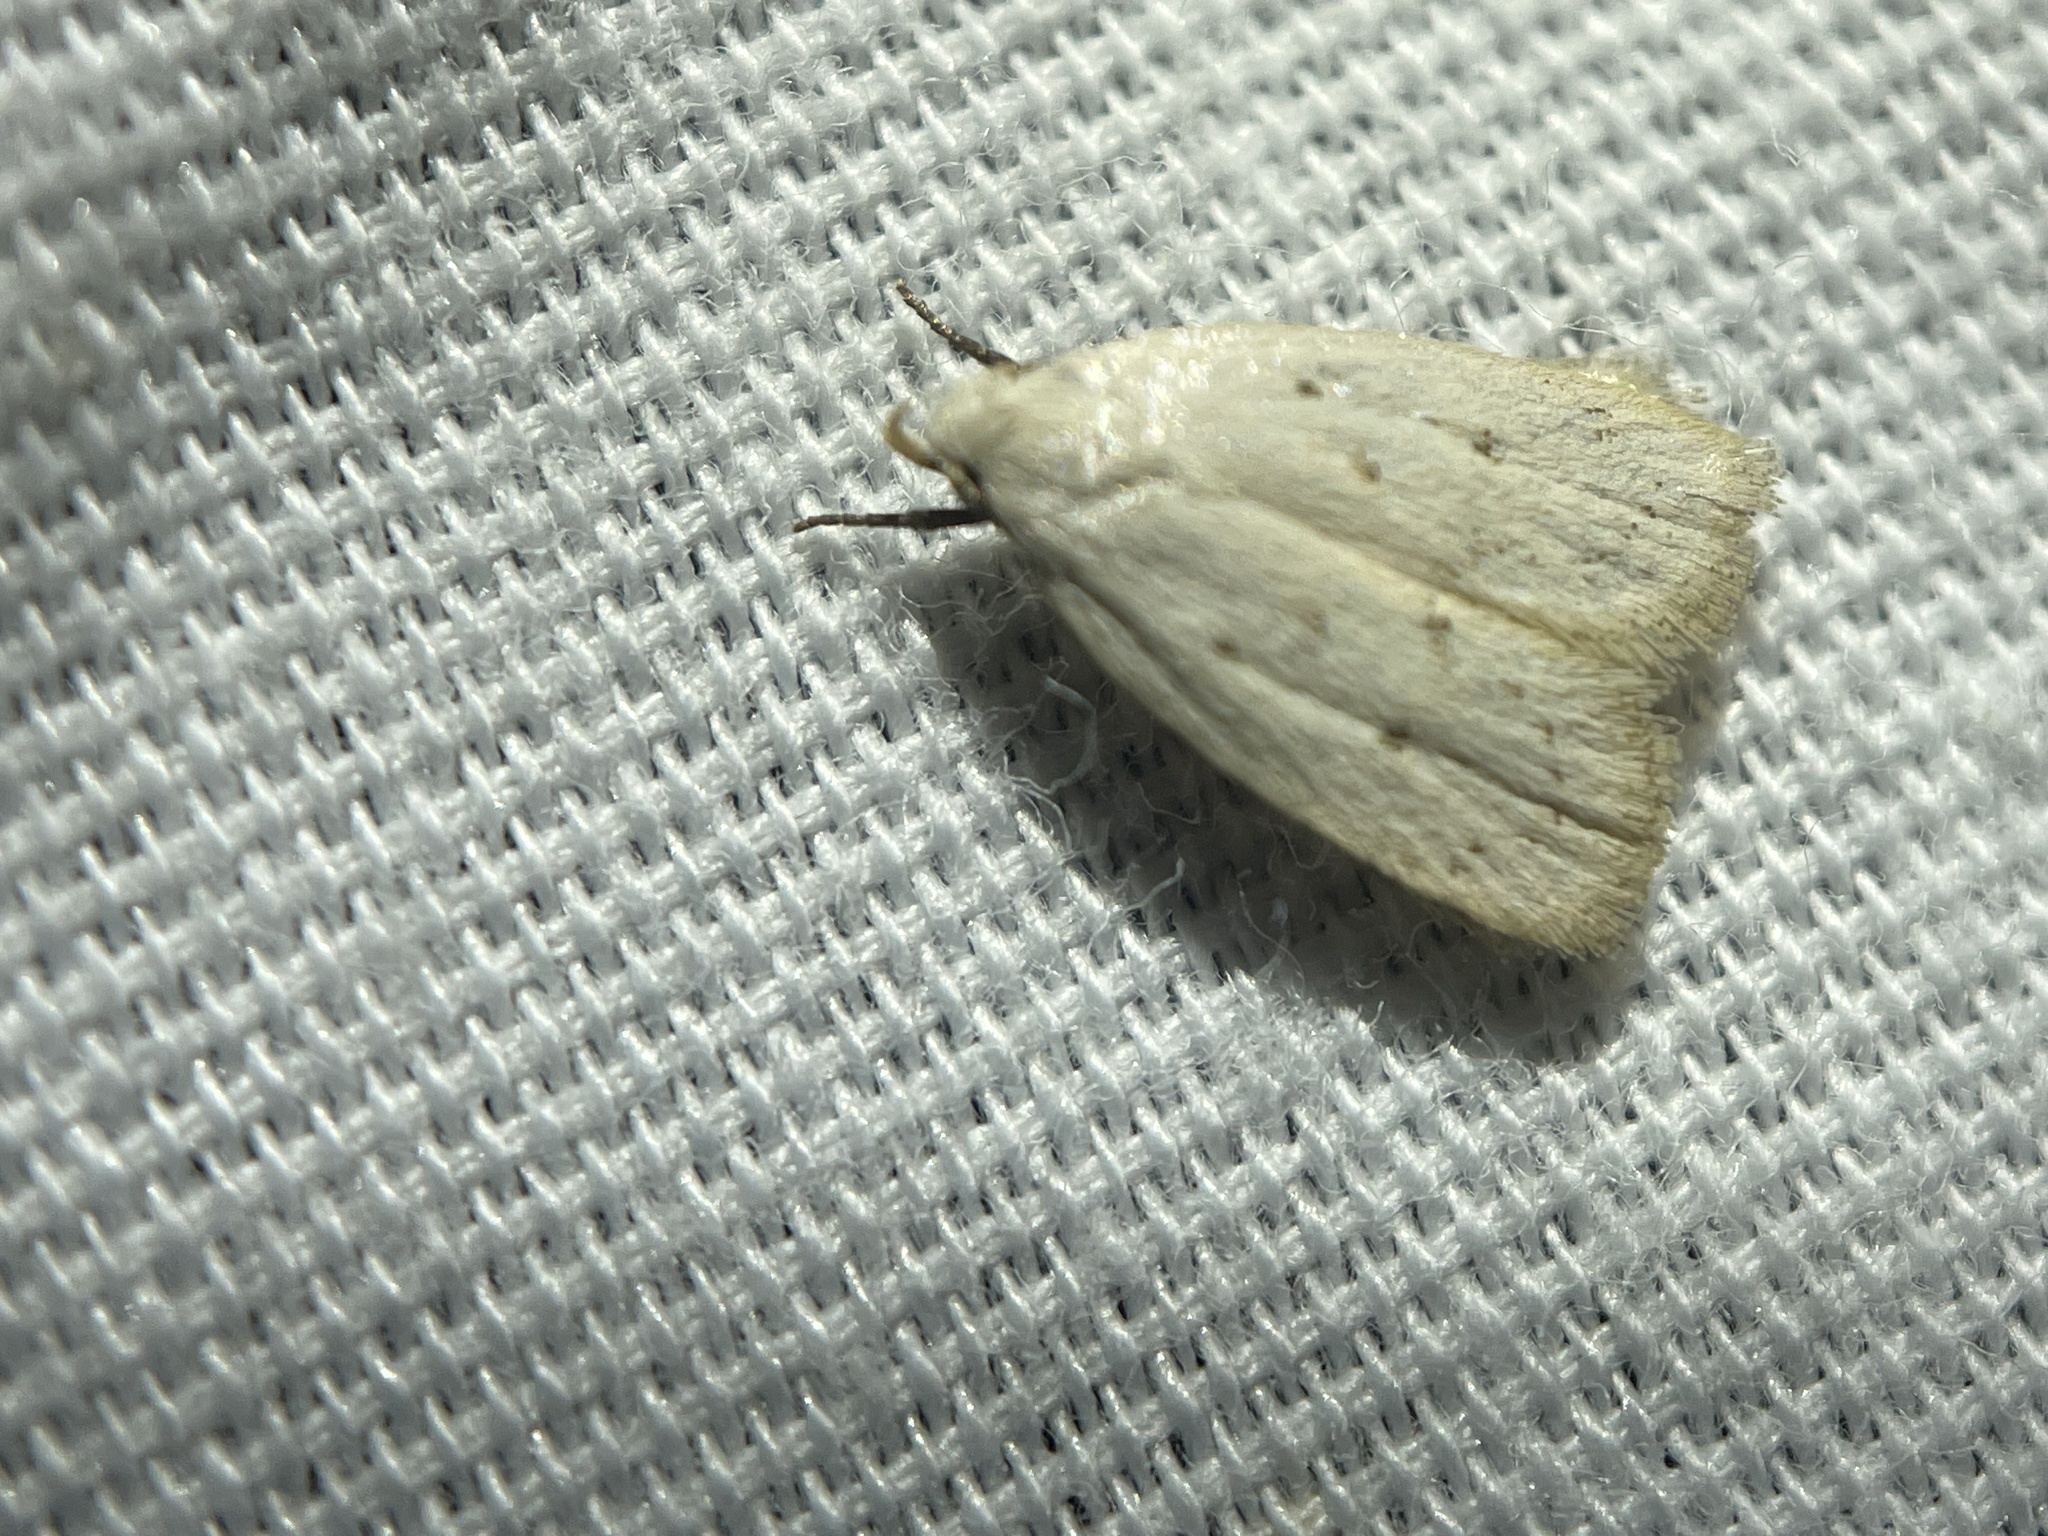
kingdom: Animalia
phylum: Arthropoda
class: Insecta
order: Lepidoptera
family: Oecophoridae
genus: Inga
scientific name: Inga cretacea
